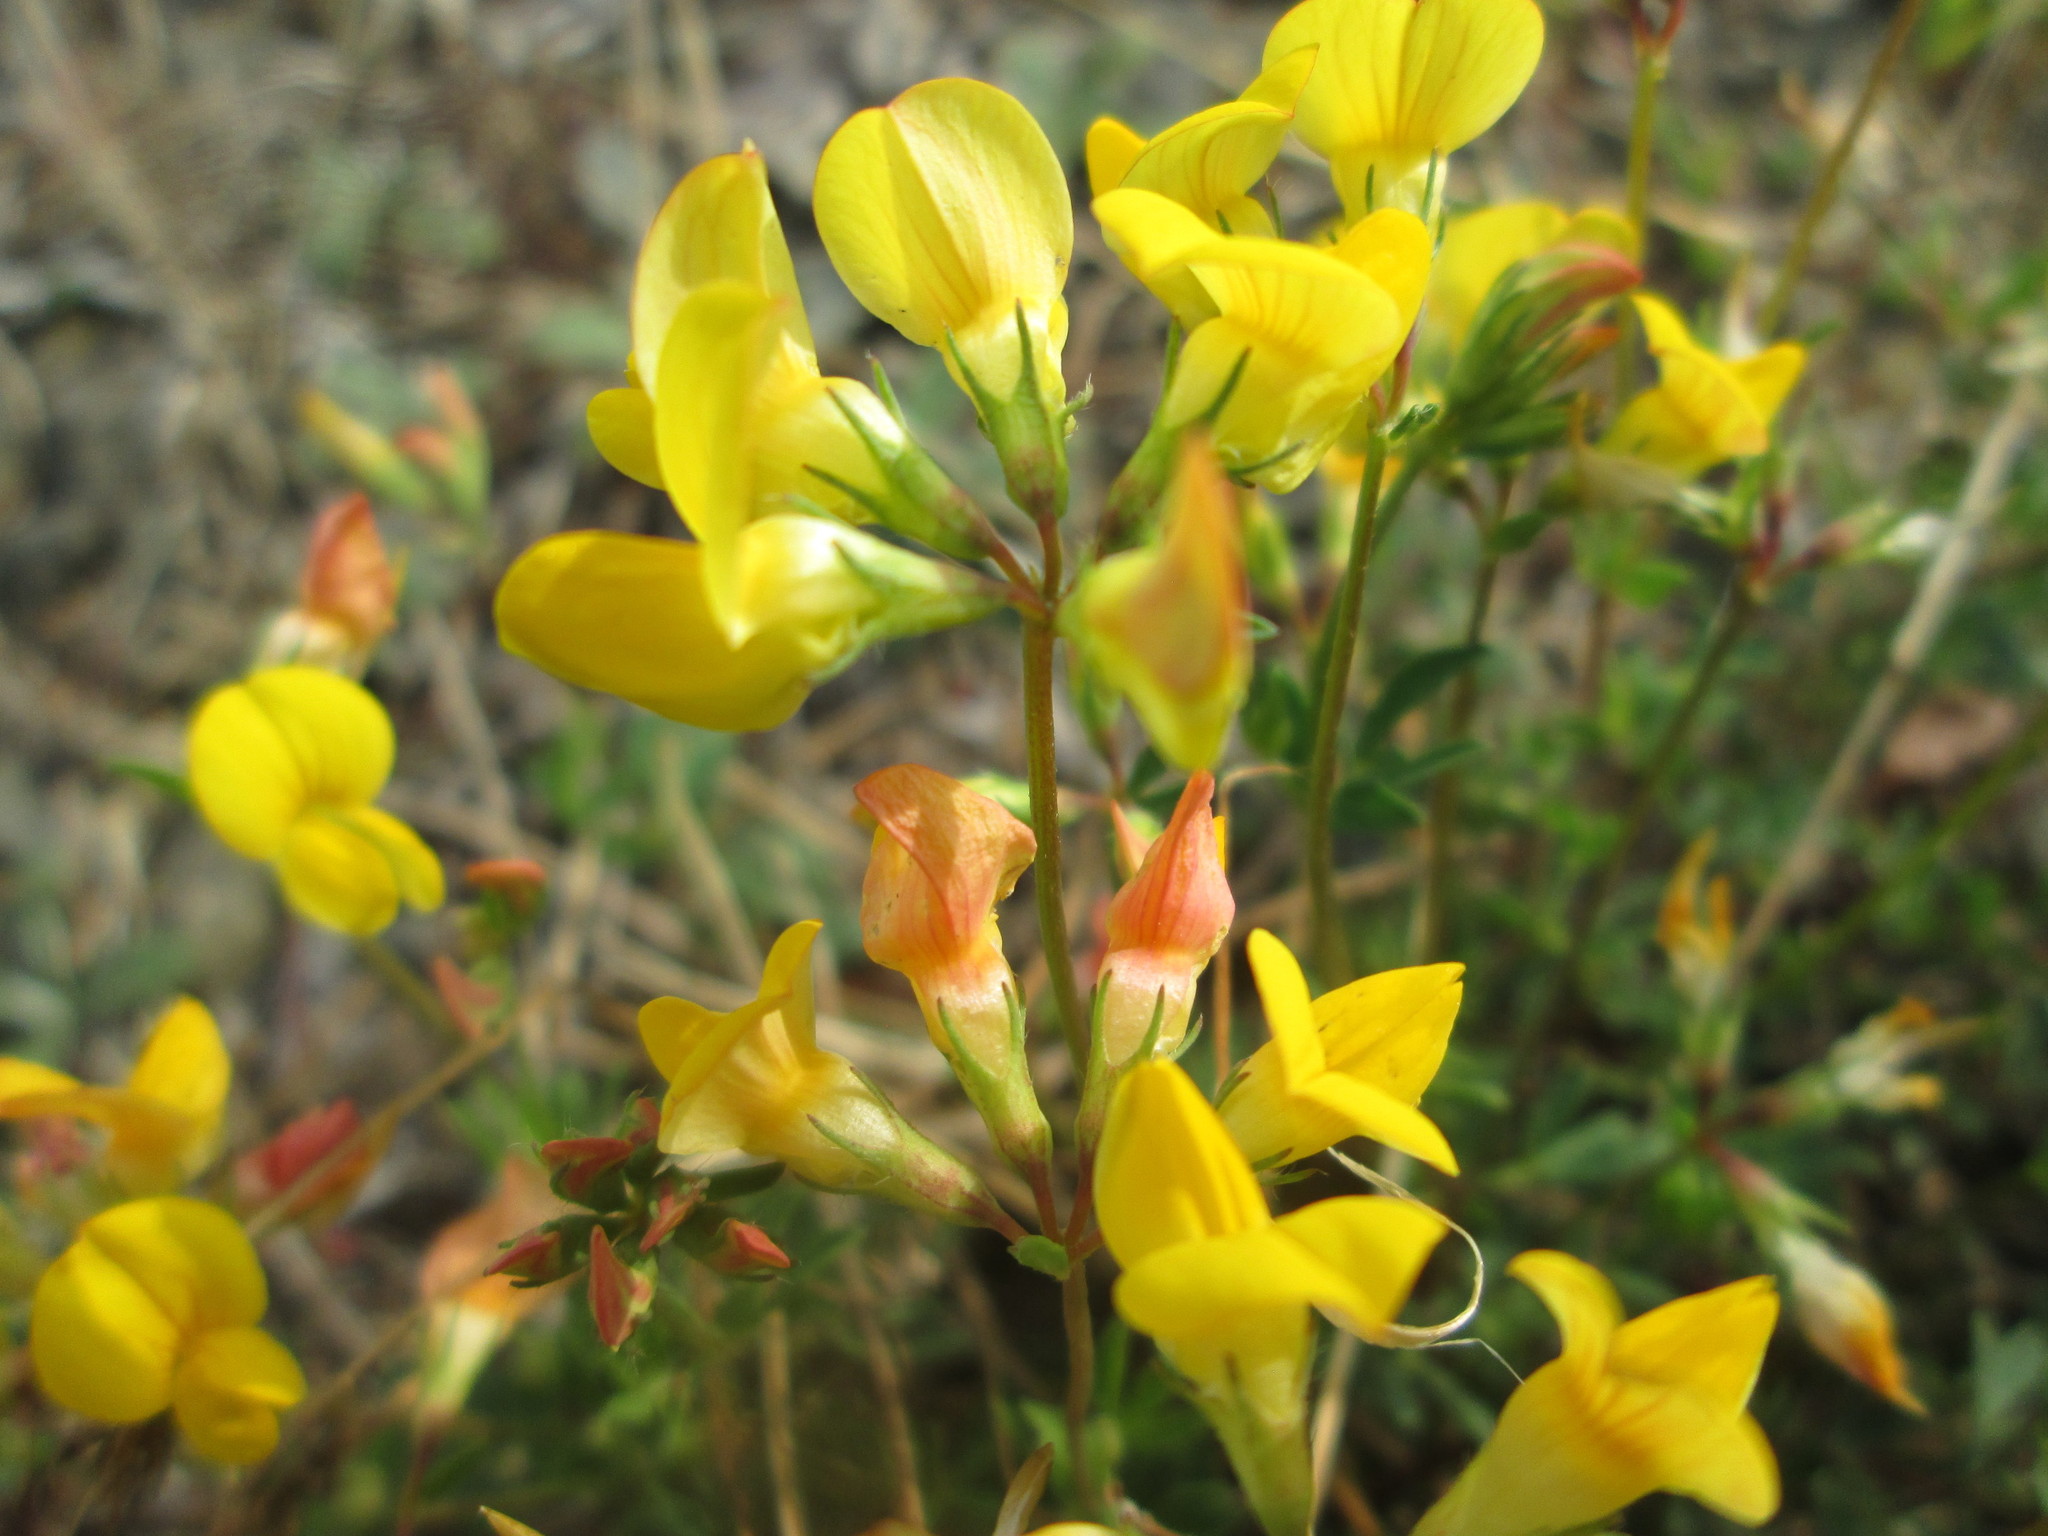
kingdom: Plantae
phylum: Tracheophyta
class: Magnoliopsida
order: Fabales
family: Fabaceae
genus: Lotus
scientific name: Lotus corniculatus
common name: Common bird's-foot-trefoil
